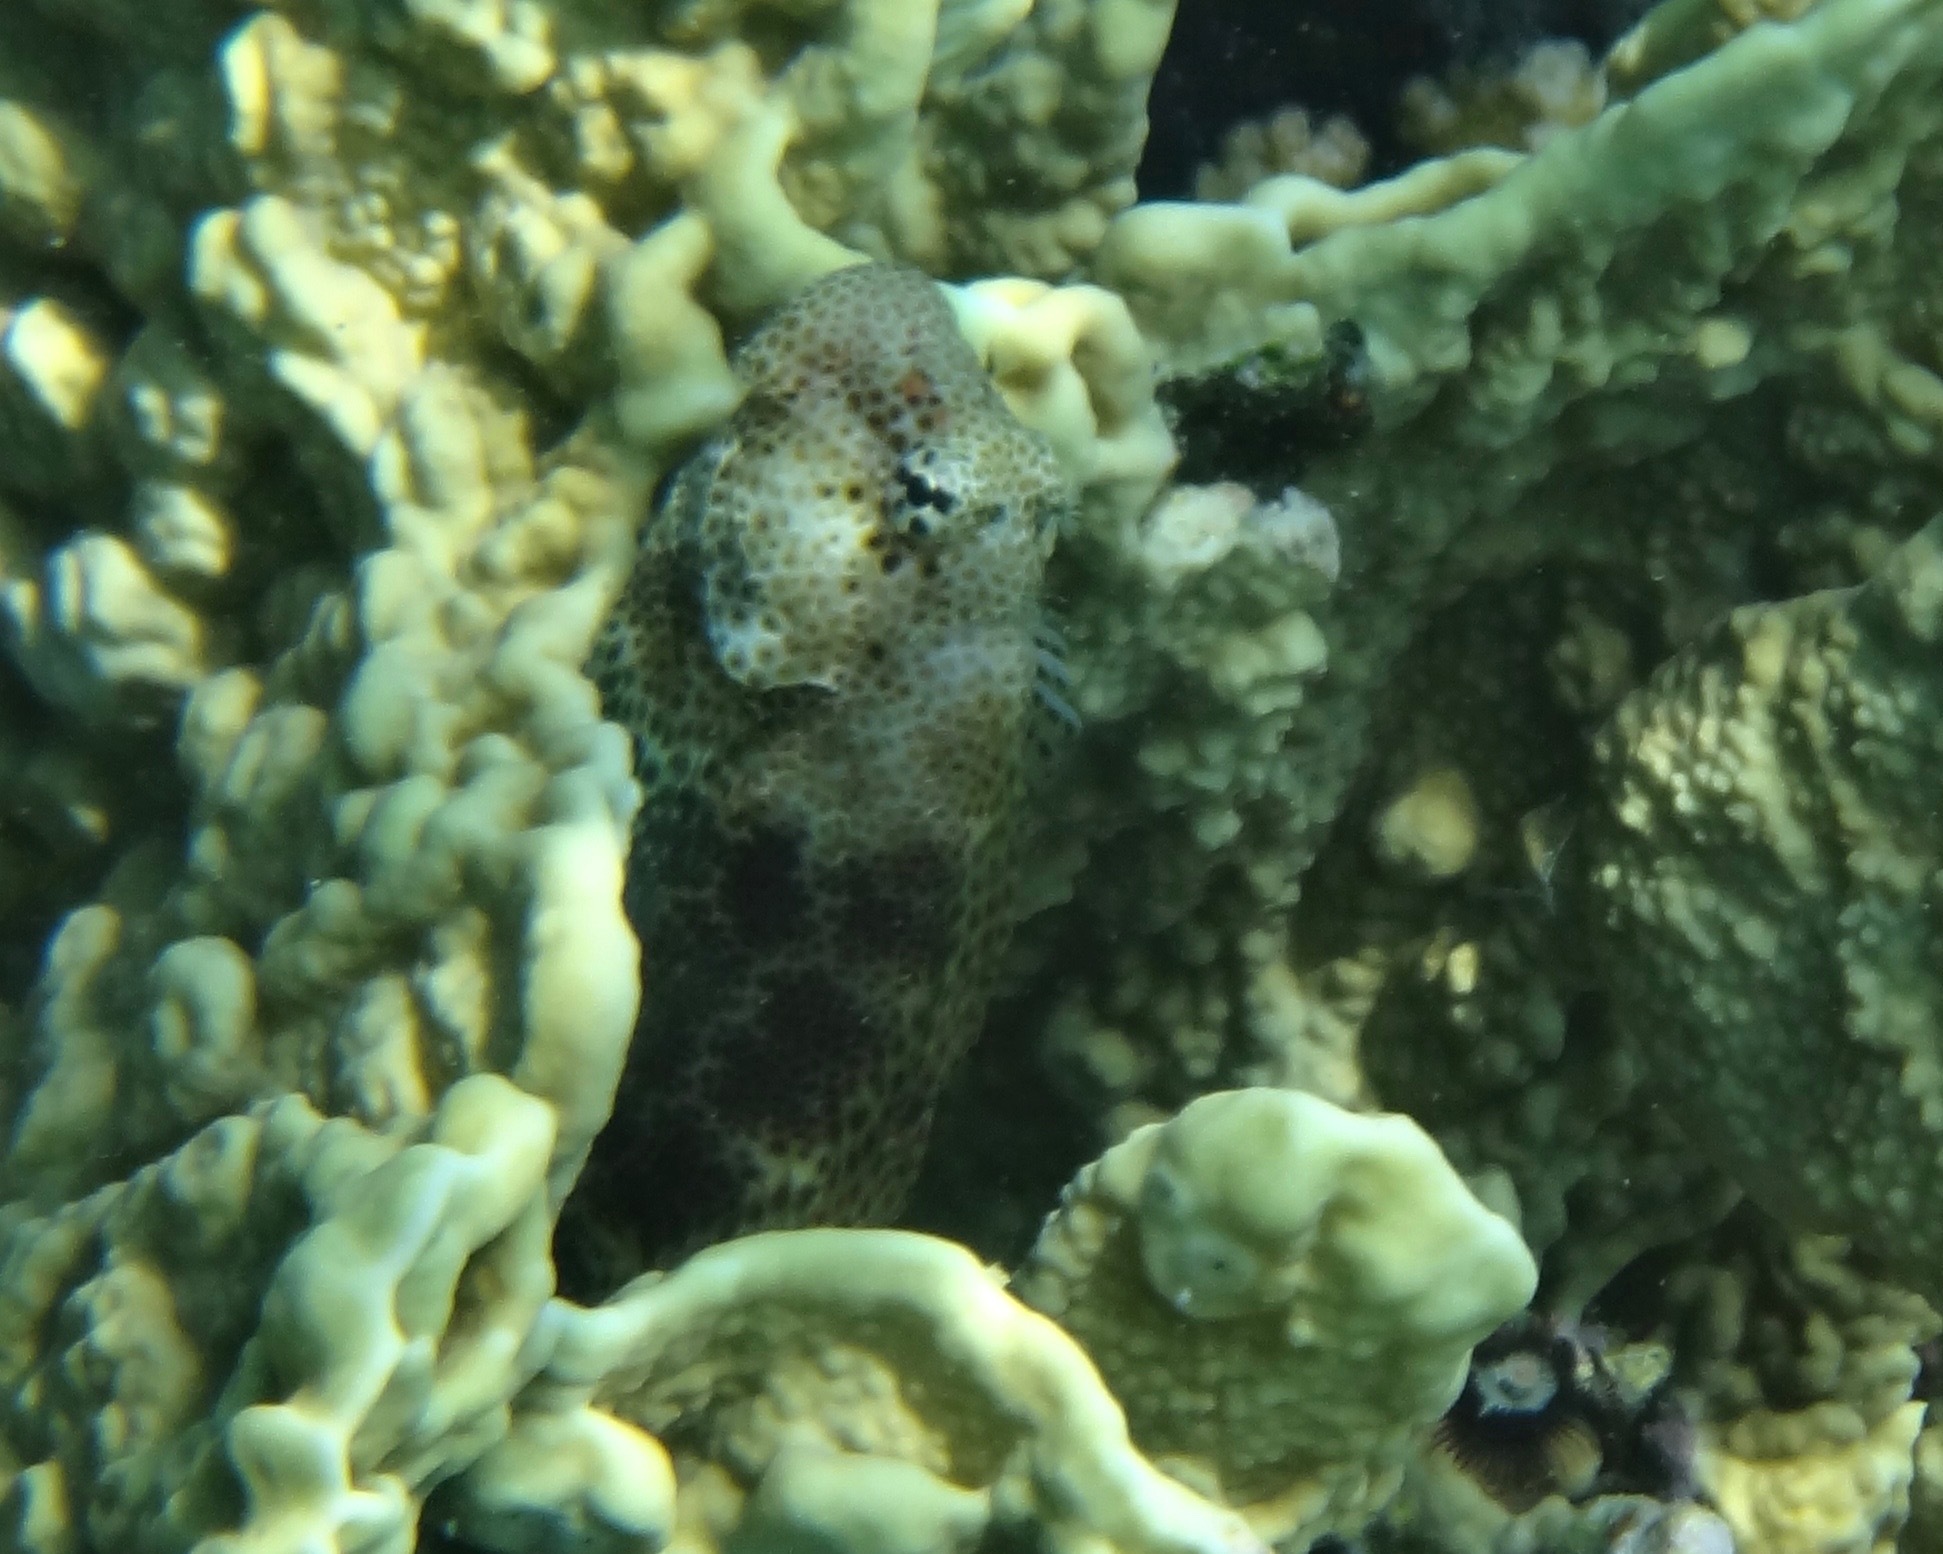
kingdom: Animalia
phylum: Chordata
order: Perciformes
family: Blenniidae
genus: Exallias
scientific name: Exallias brevis
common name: Leopard blenny
